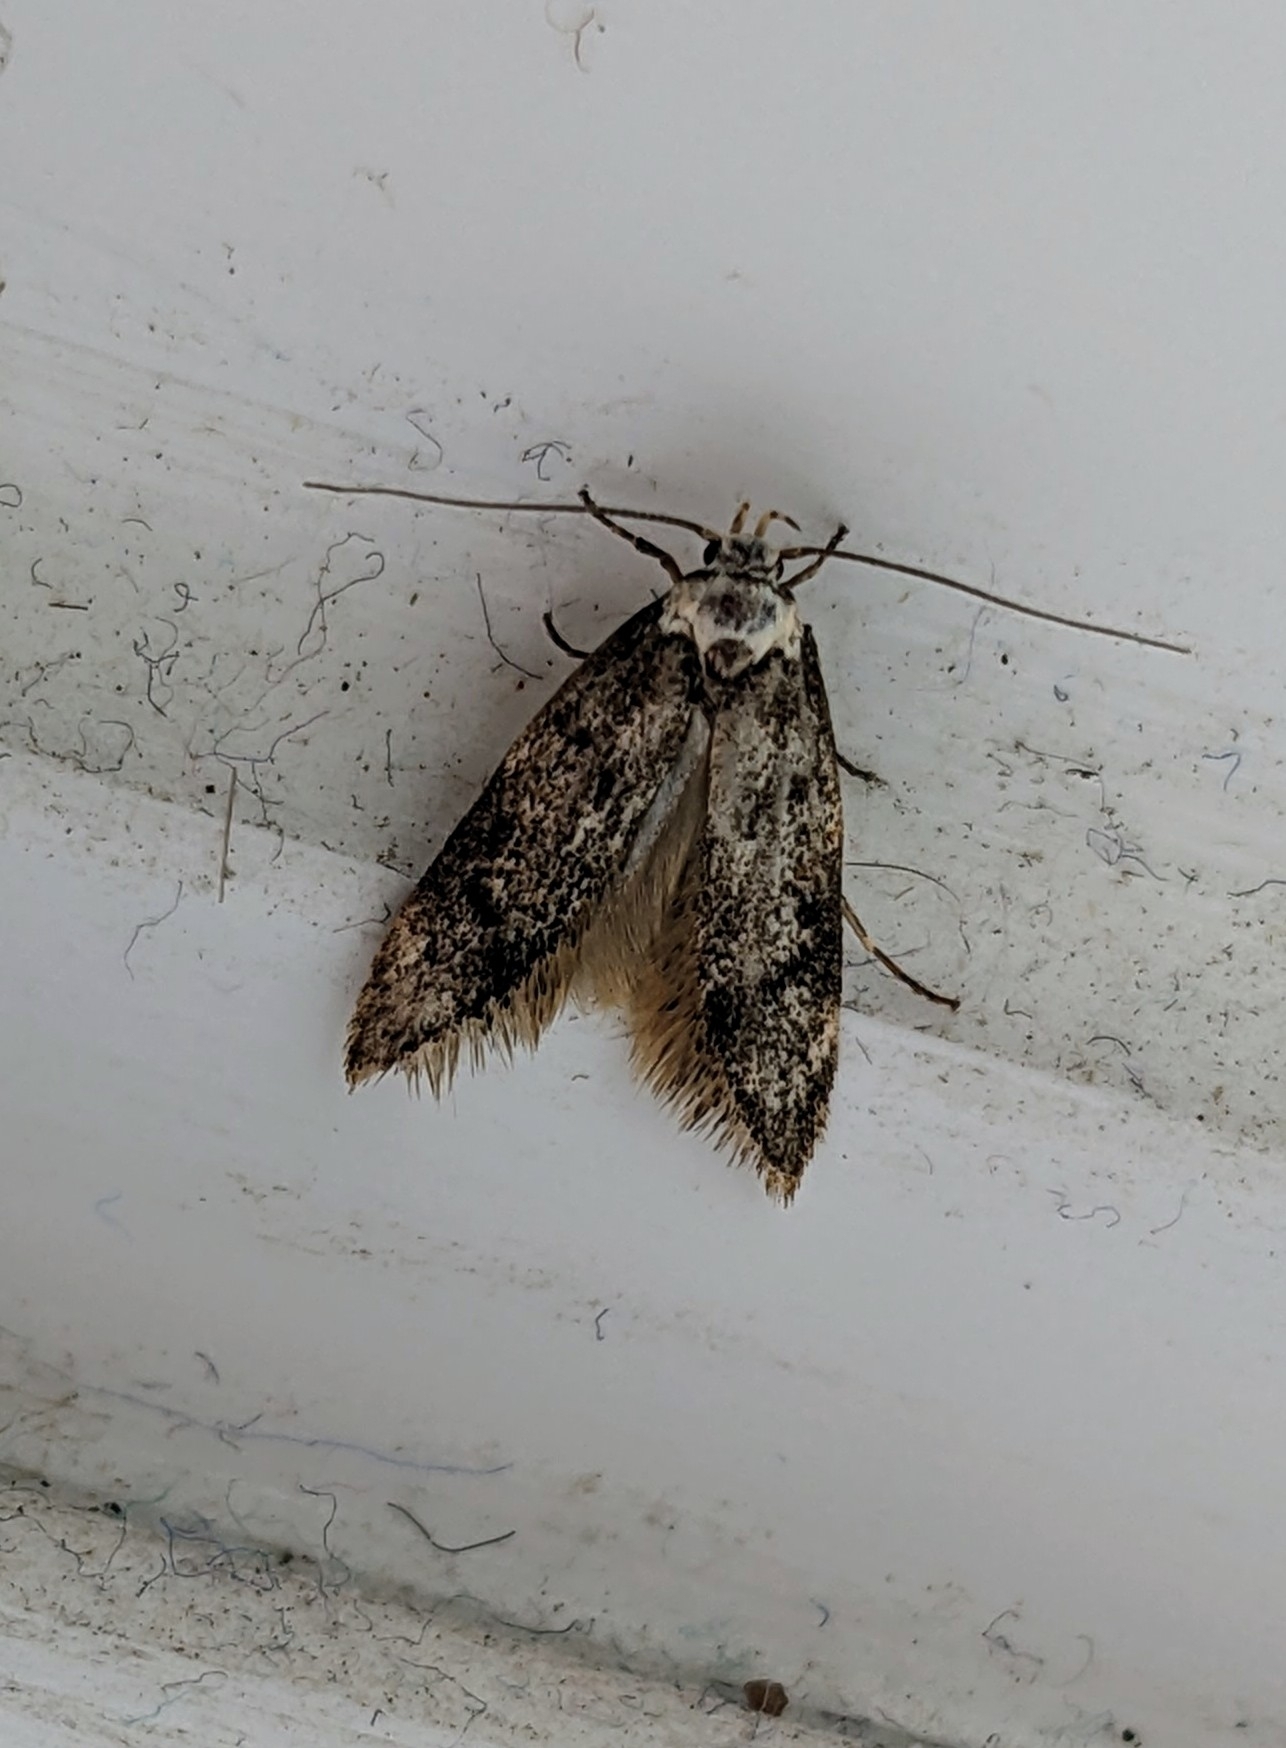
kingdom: Animalia
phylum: Arthropoda
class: Insecta
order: Lepidoptera
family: Oecophoridae
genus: Endrosis
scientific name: Endrosis sarcitrella
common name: White-shouldered house moth
